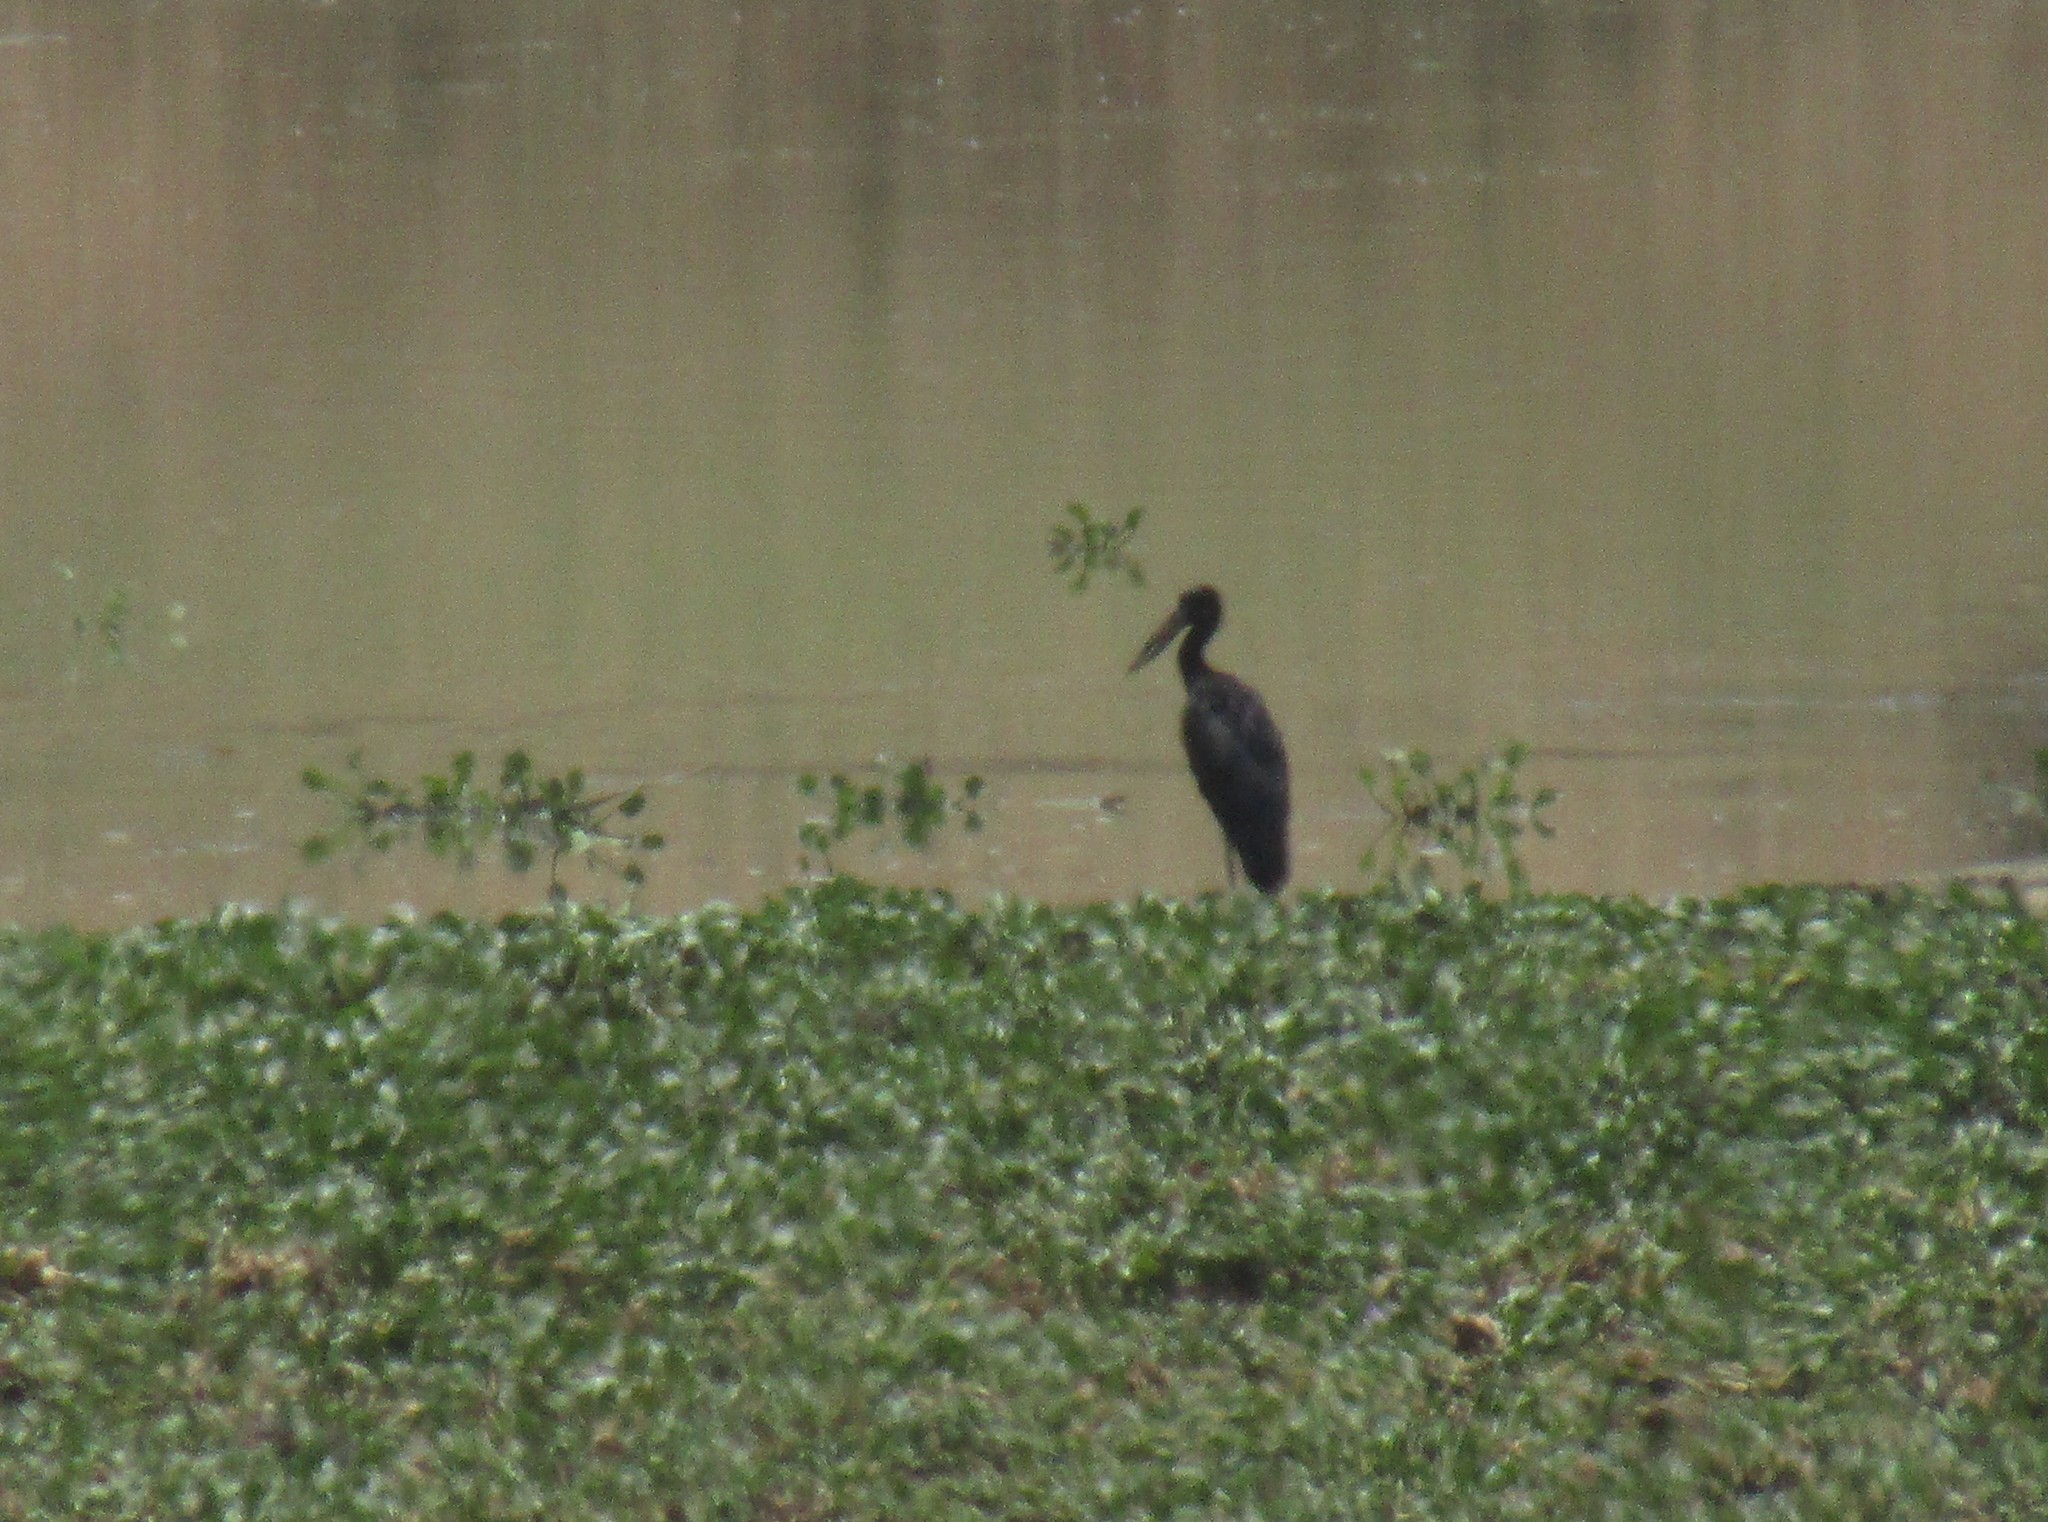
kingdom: Animalia
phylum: Chordata
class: Aves
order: Ciconiiformes
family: Ciconiidae
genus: Anastomus
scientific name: Anastomus lamelligerus
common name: African openbill
